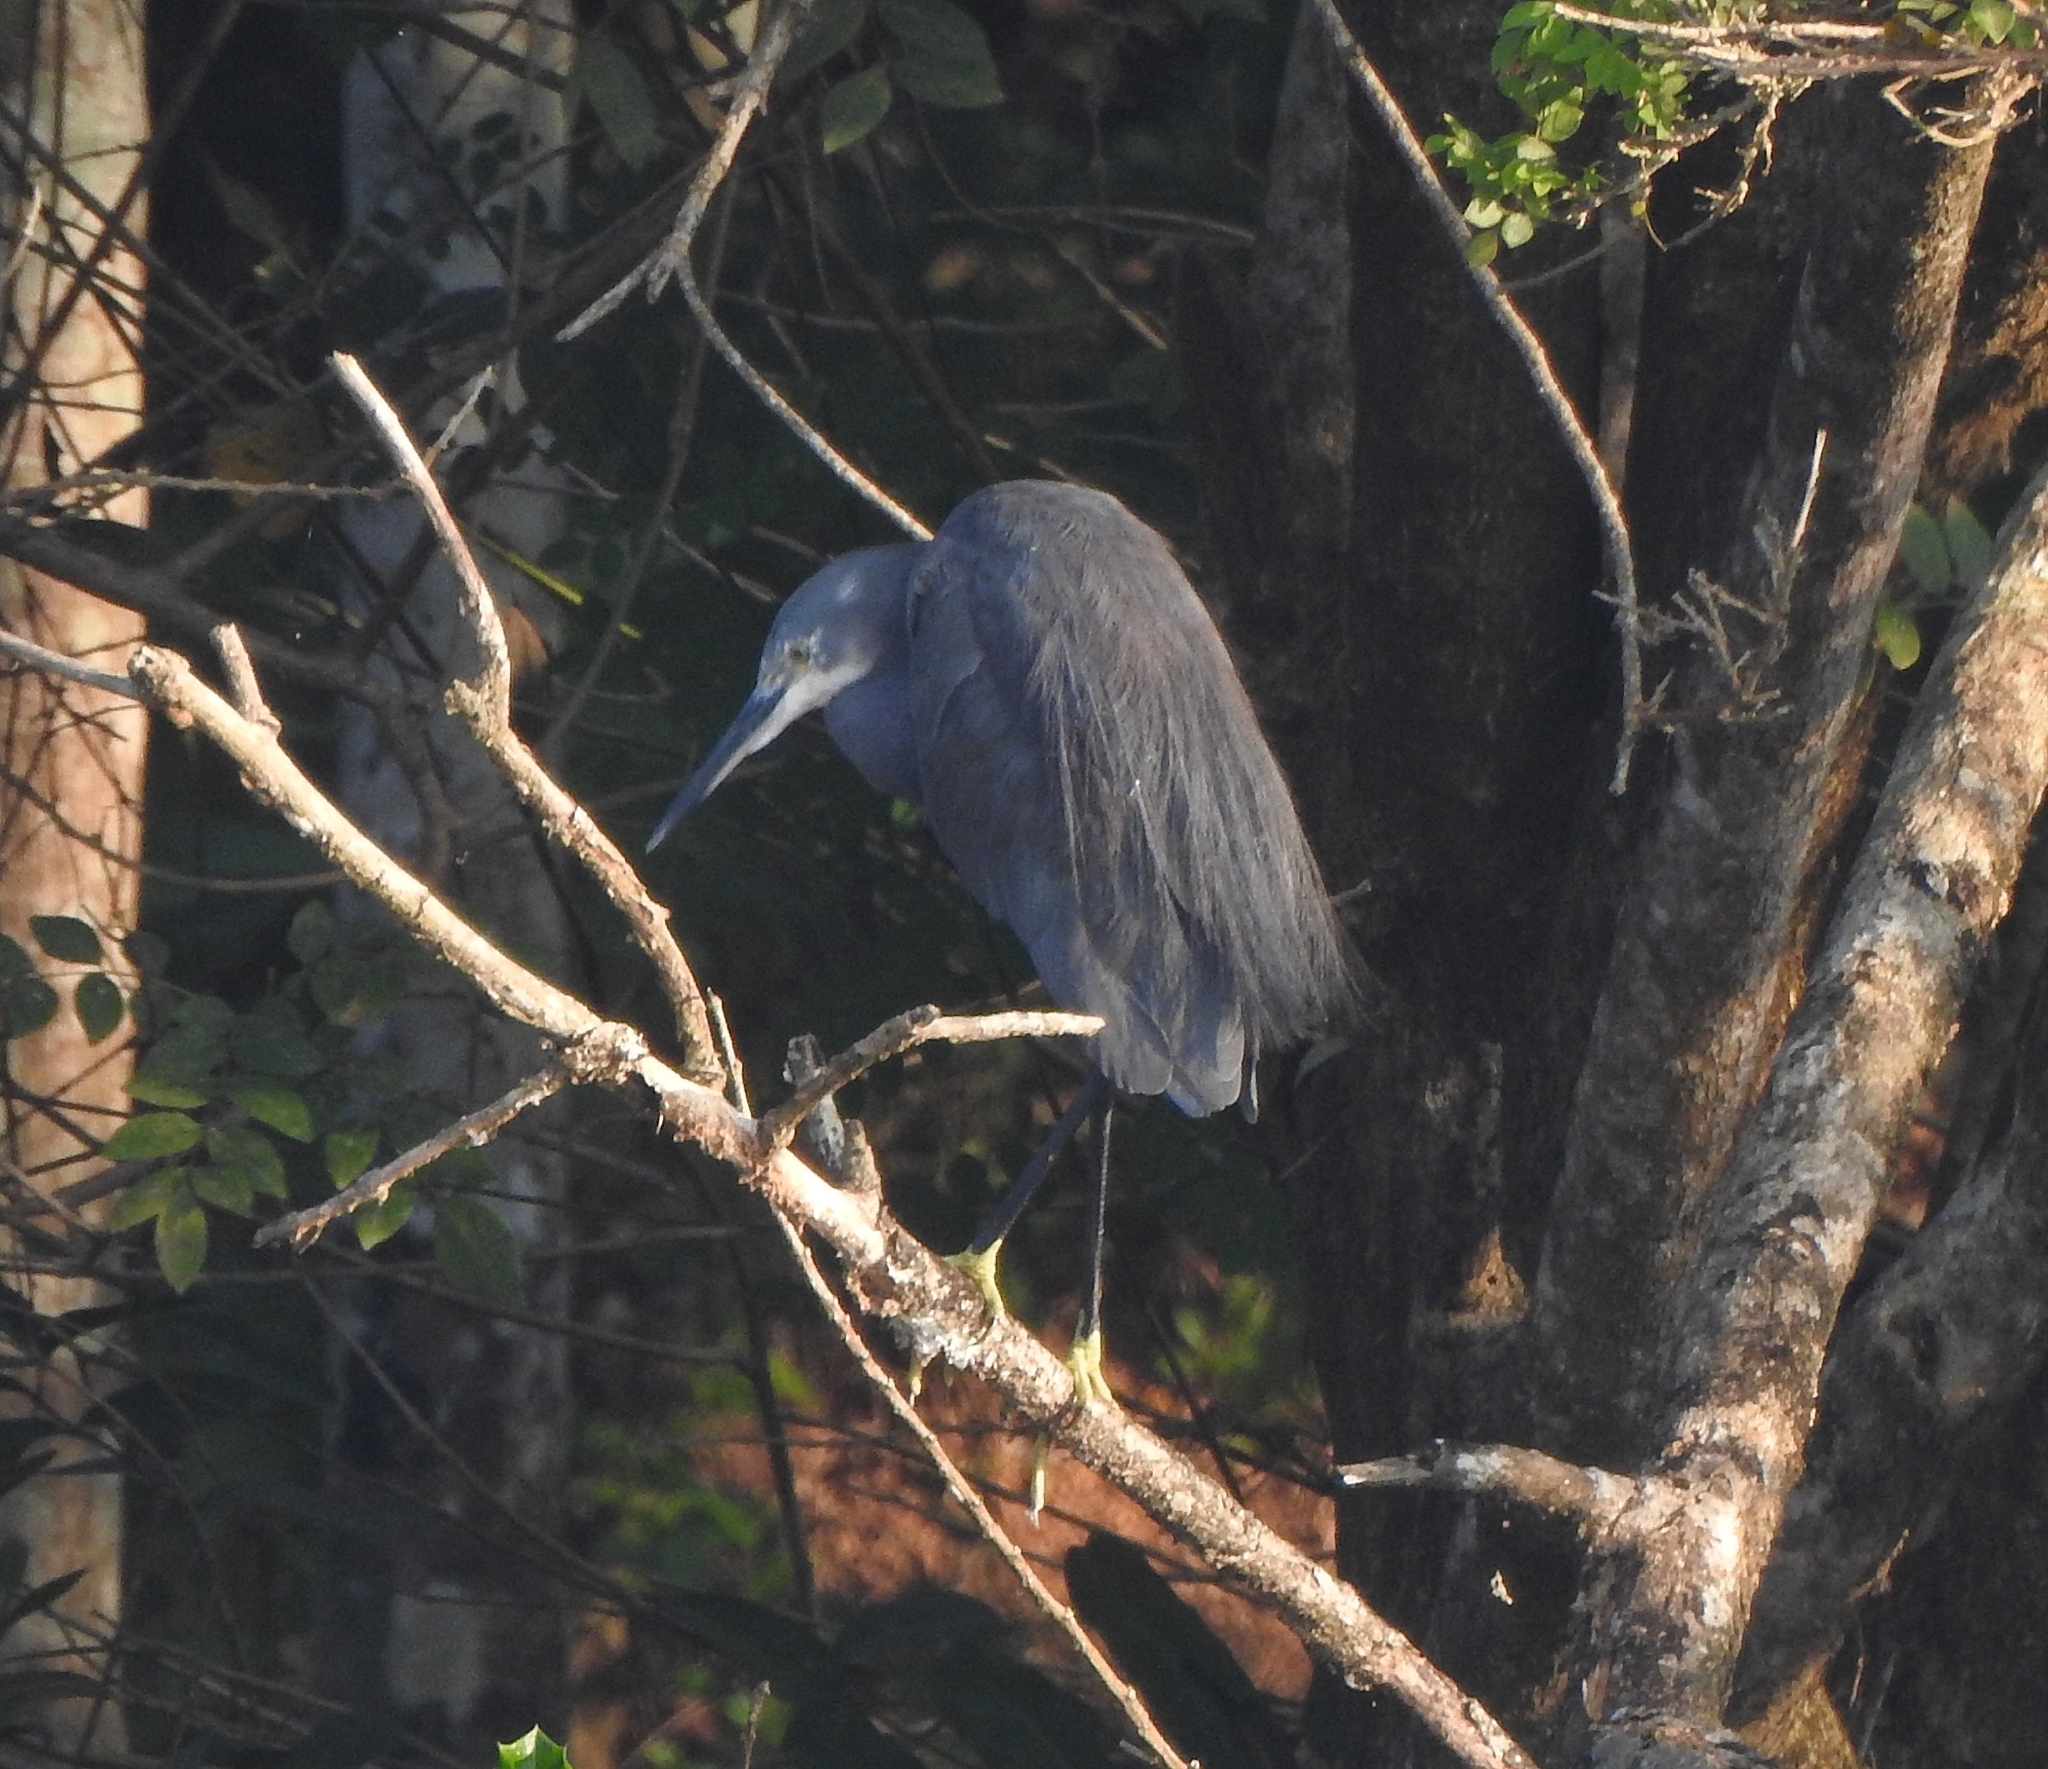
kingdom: Animalia
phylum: Chordata
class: Aves
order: Pelecaniformes
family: Ardeidae
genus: Egretta
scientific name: Egretta garzetta
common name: Little egret
